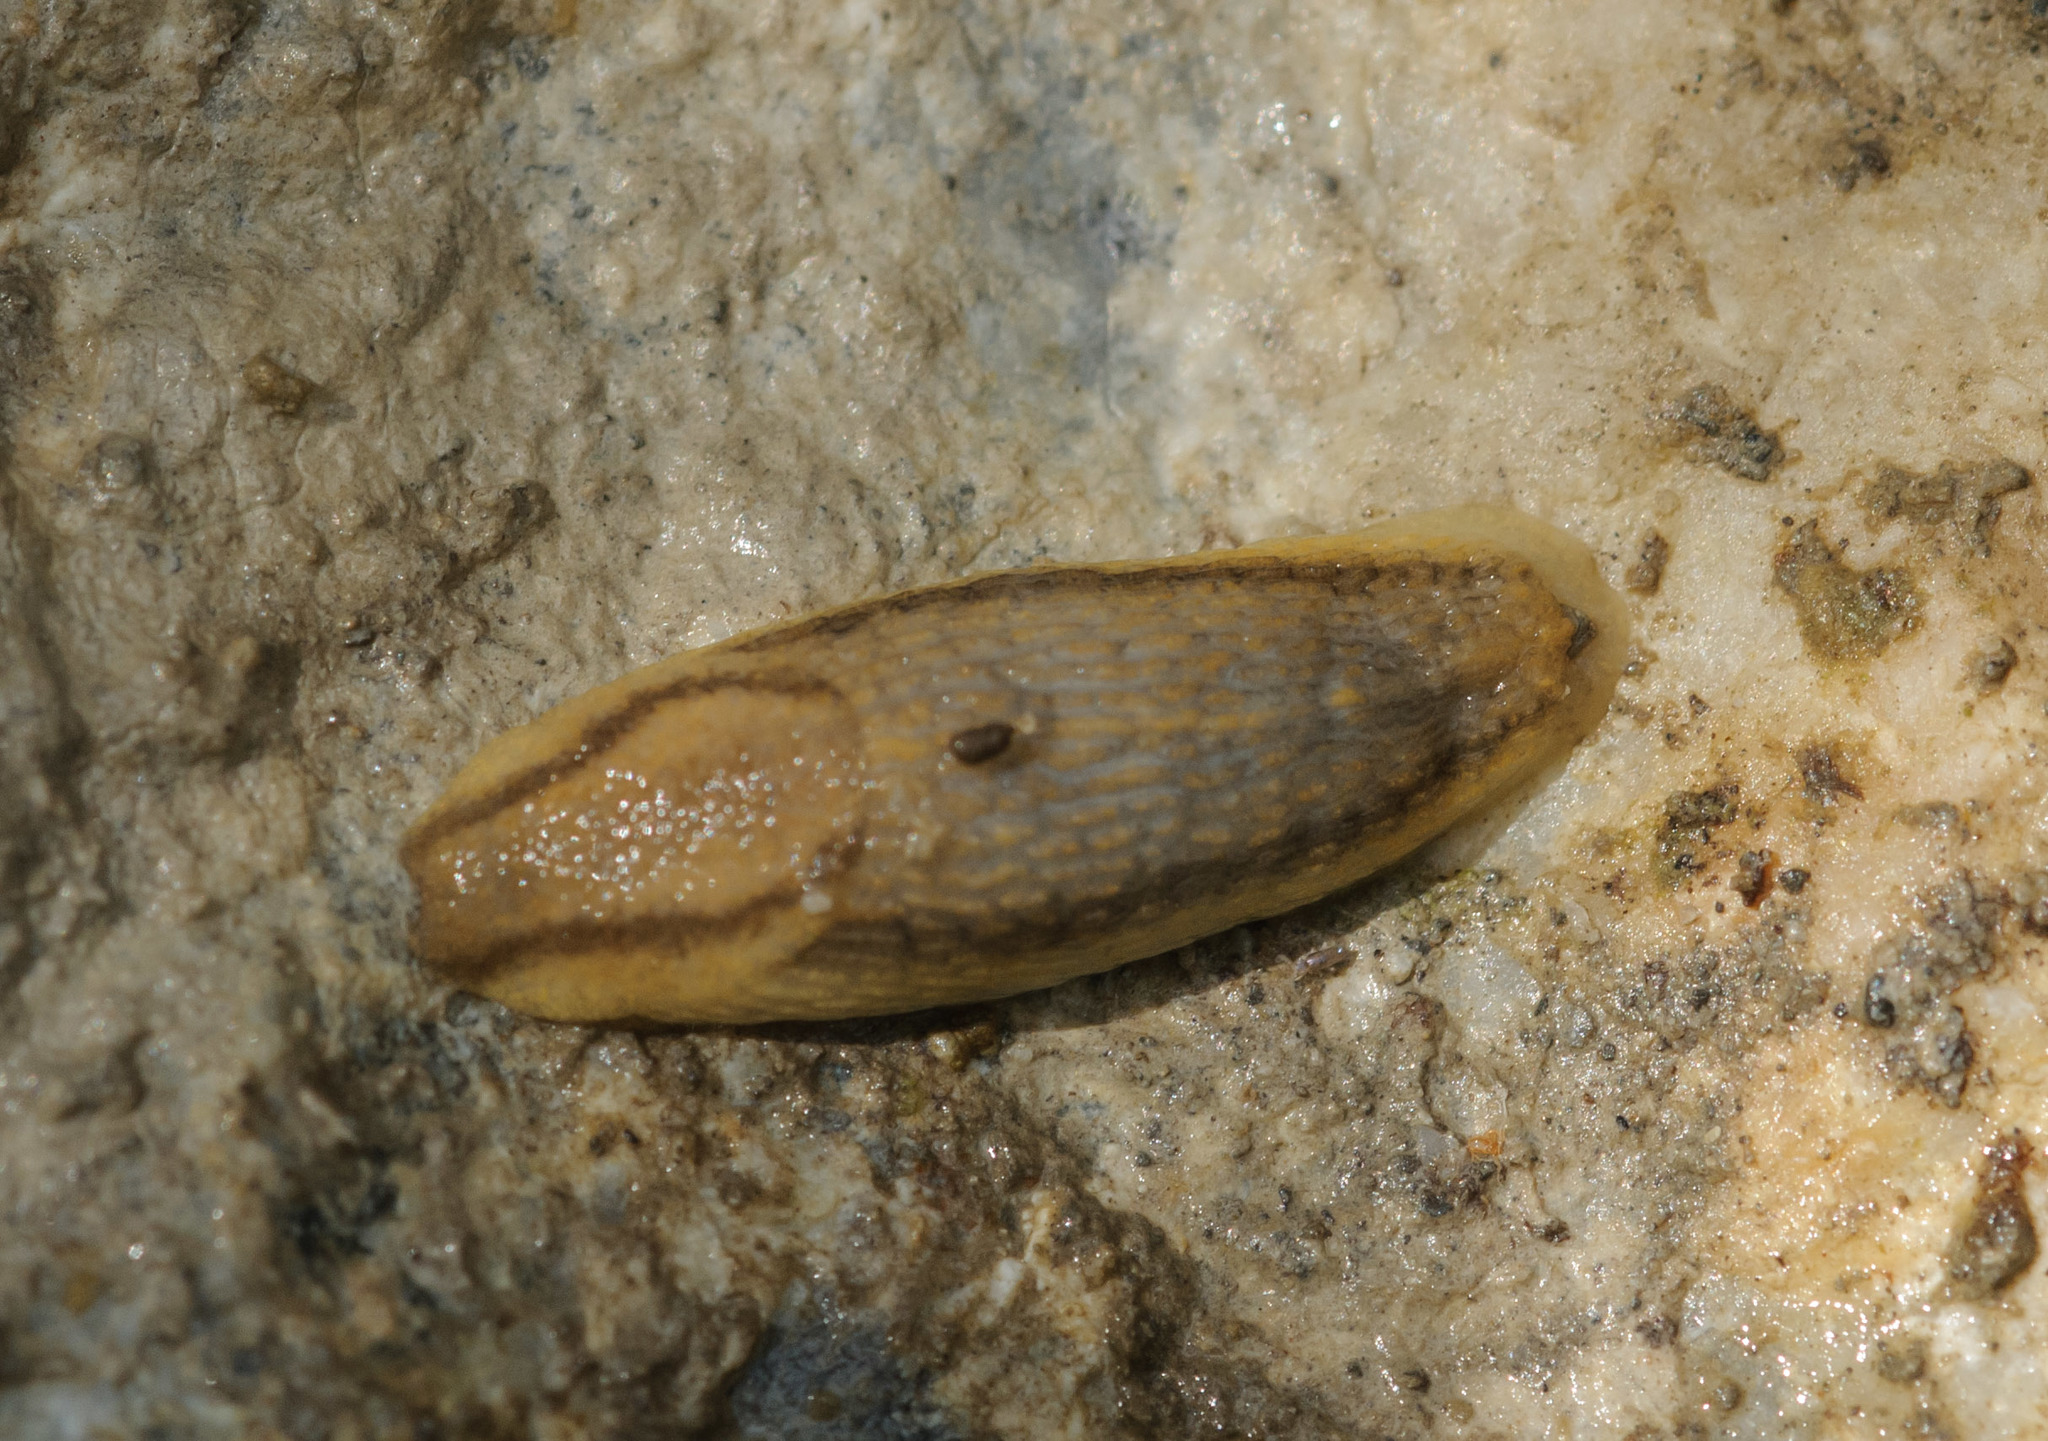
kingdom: Animalia
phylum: Mollusca
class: Gastropoda
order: Stylommatophora
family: Arionidae
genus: Arion
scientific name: Arion fasciatus
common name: Orange-banded arion
